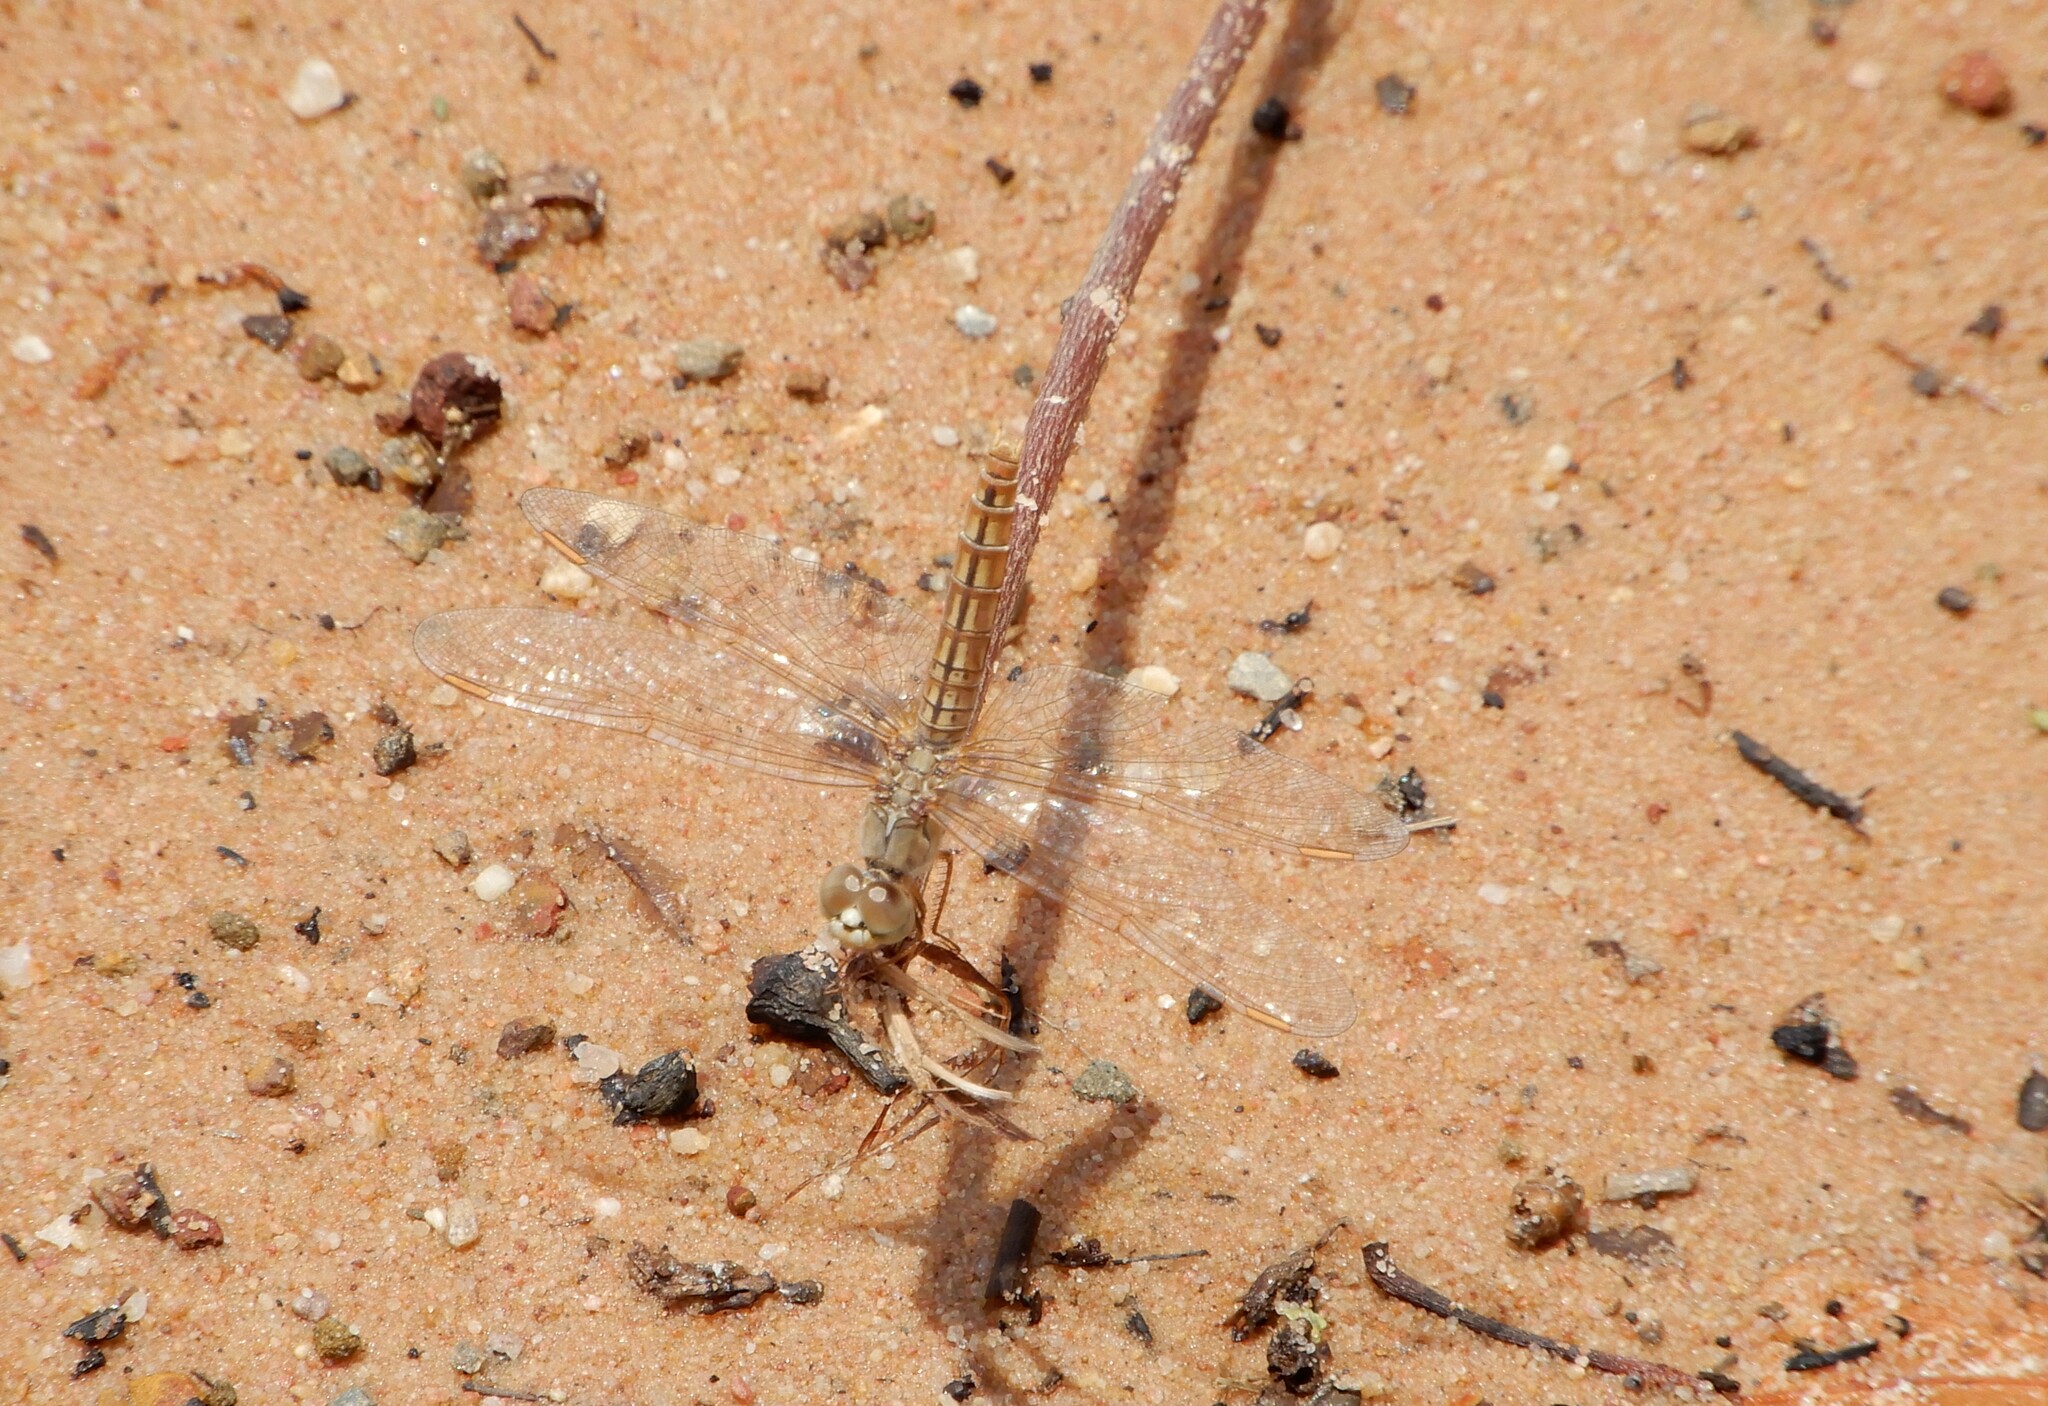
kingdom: Animalia
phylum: Arthropoda
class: Insecta
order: Odonata
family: Libellulidae
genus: Brachythemis
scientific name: Brachythemis contaminata
